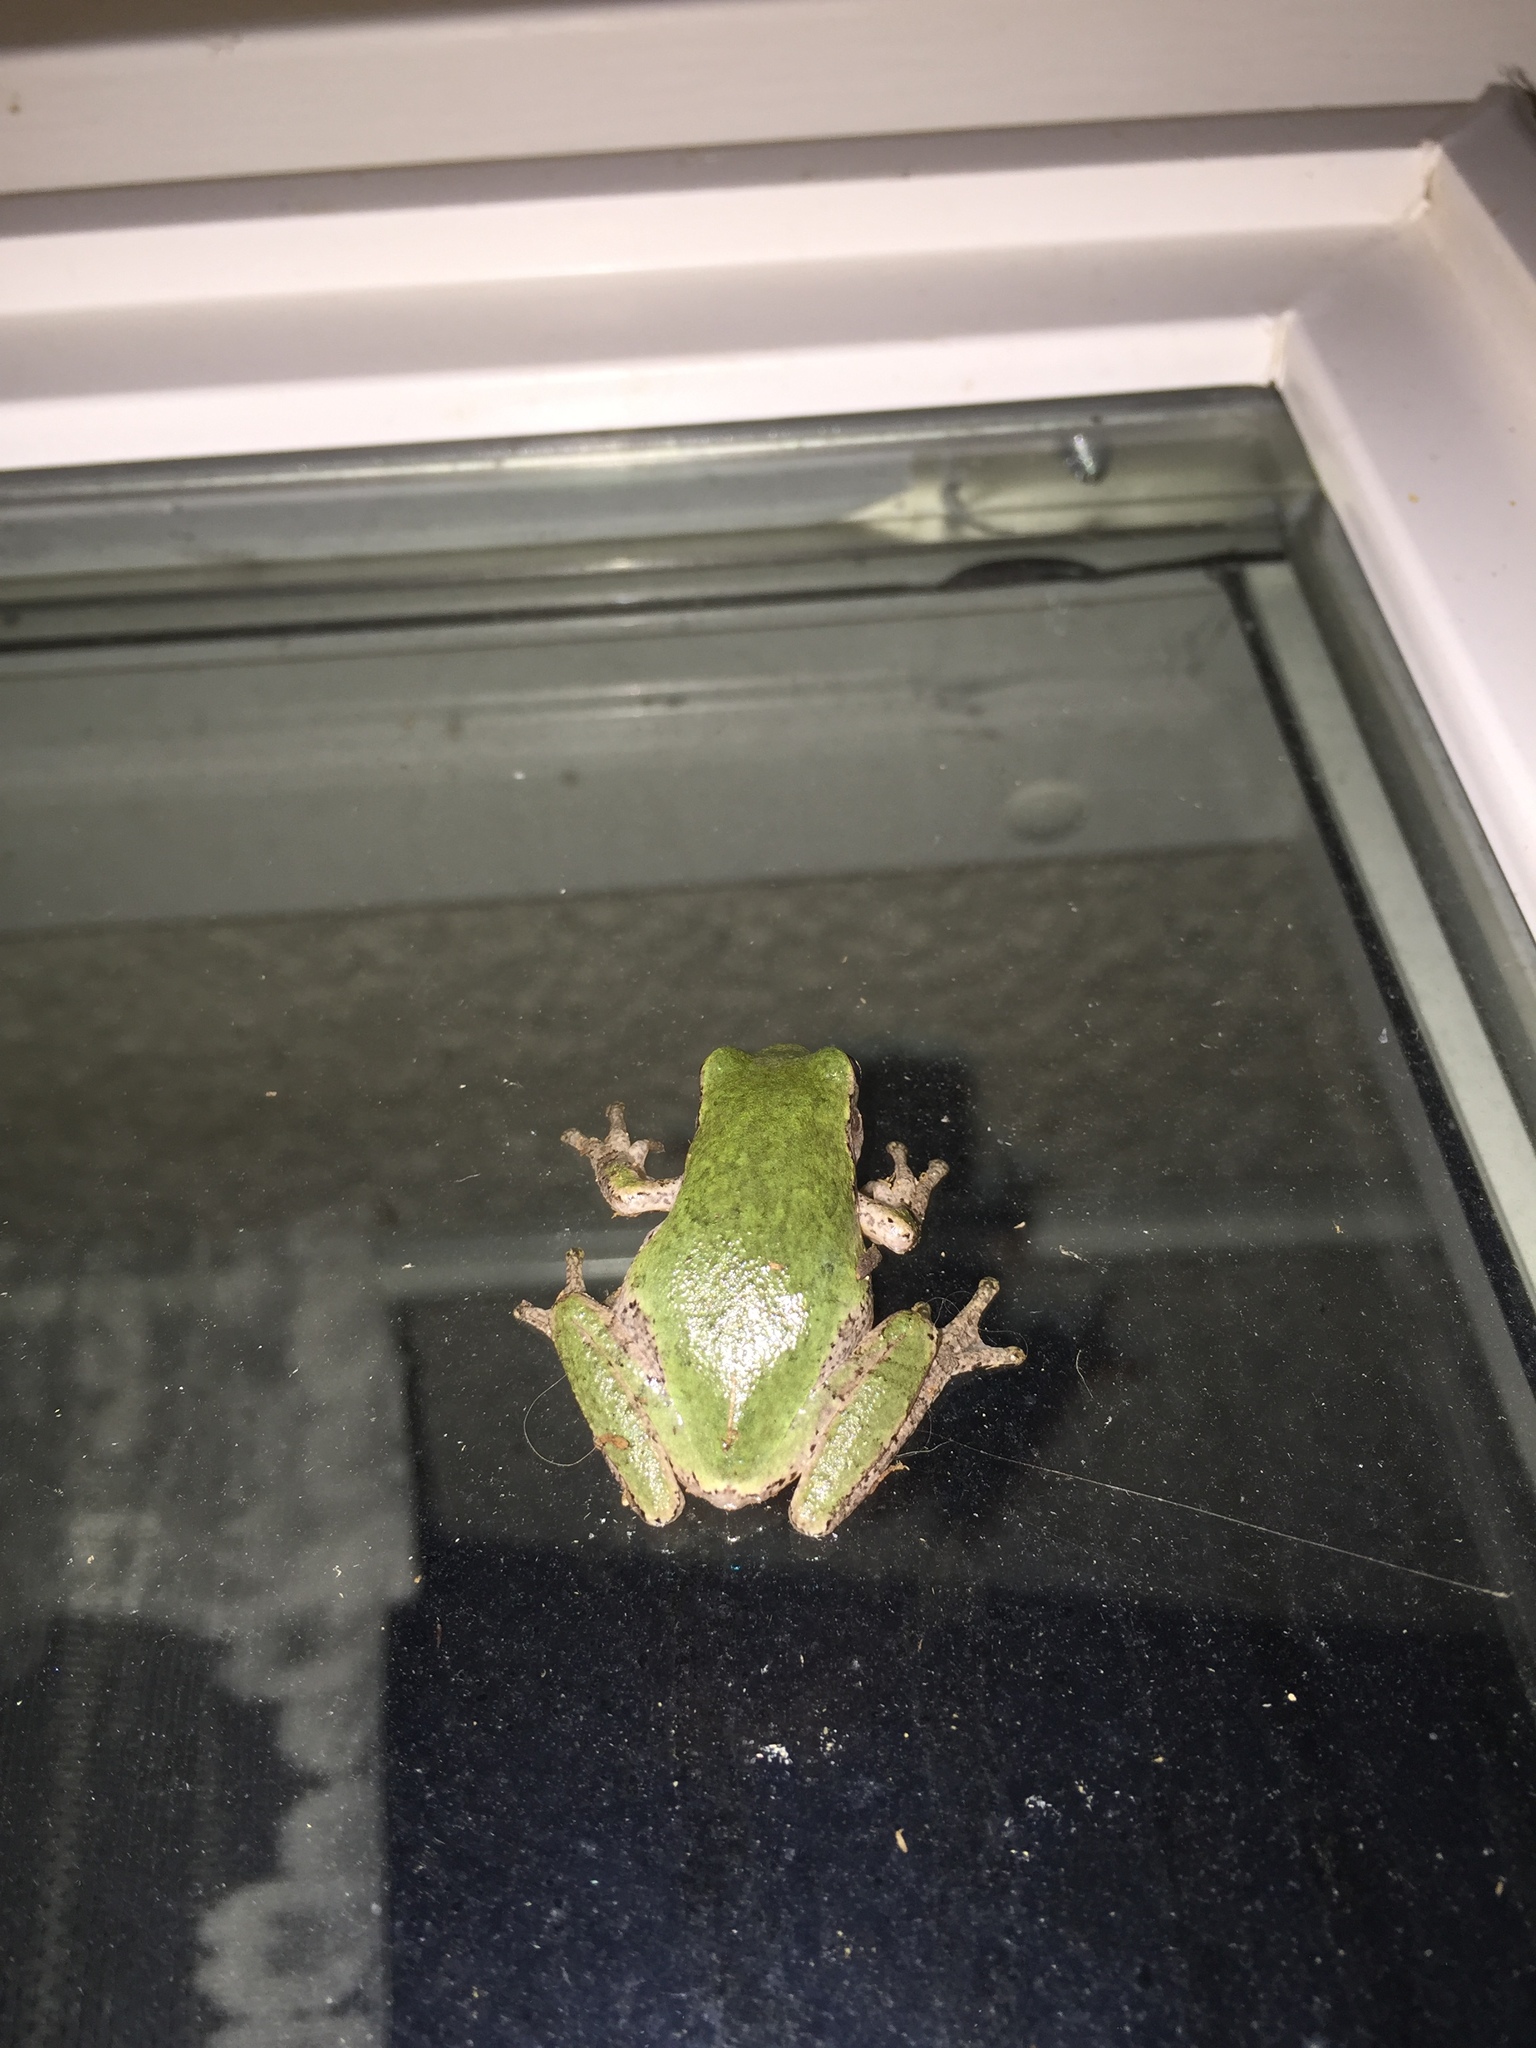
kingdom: Animalia
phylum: Chordata
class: Amphibia
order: Anura
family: Hylidae
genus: Hyla
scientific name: Hyla
